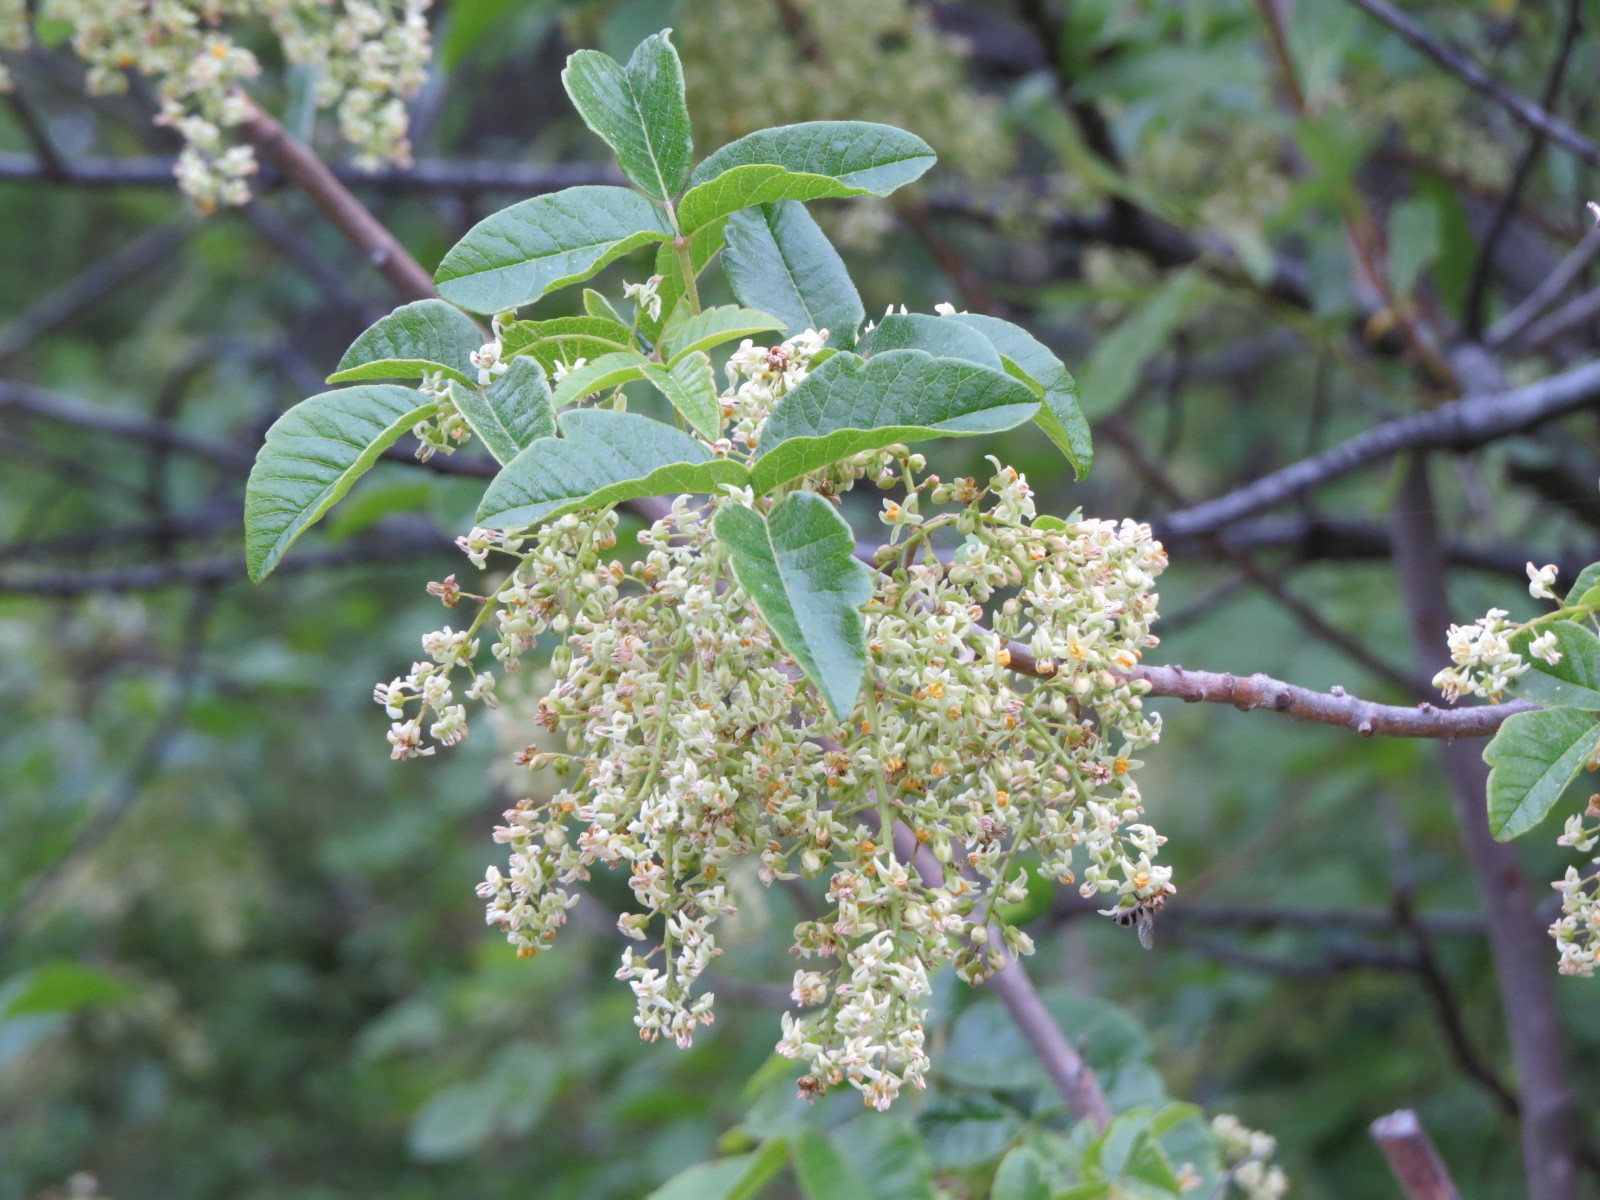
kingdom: Plantae
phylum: Tracheophyta
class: Magnoliopsida
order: Sapindales
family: Anacardiaceae
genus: Toxicodendron
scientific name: Toxicodendron diversilobum
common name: Pacific poison-oak
